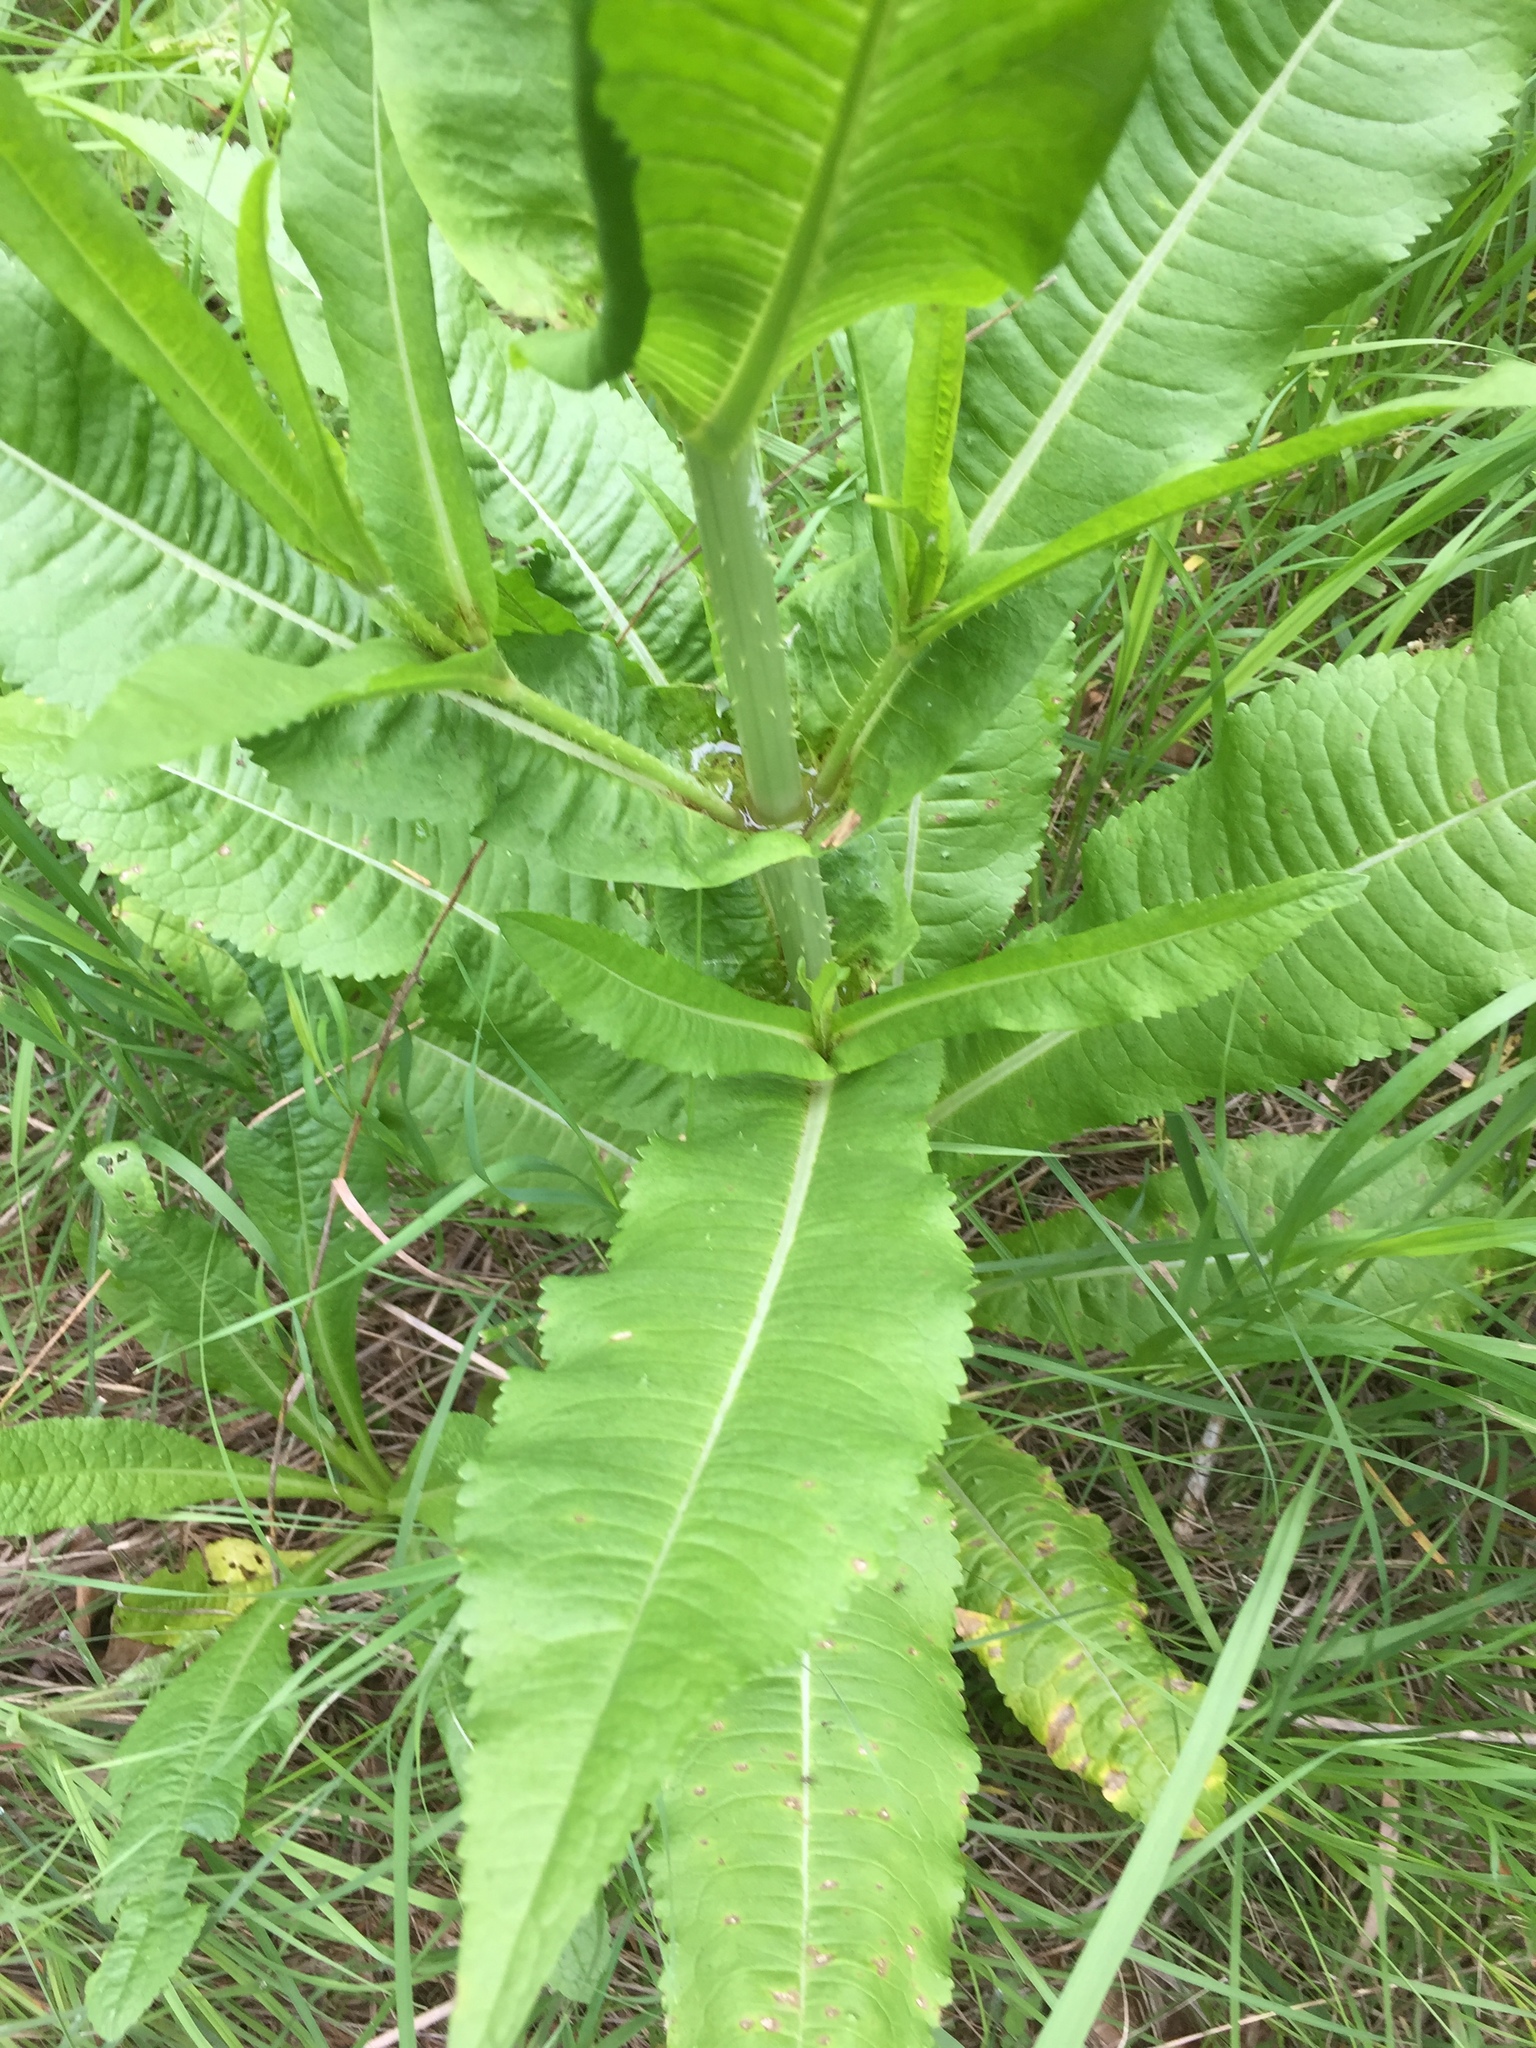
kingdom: Plantae
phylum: Tracheophyta
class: Magnoliopsida
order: Dipsacales
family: Caprifoliaceae
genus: Dipsacus
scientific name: Dipsacus fullonum
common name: Teasel
